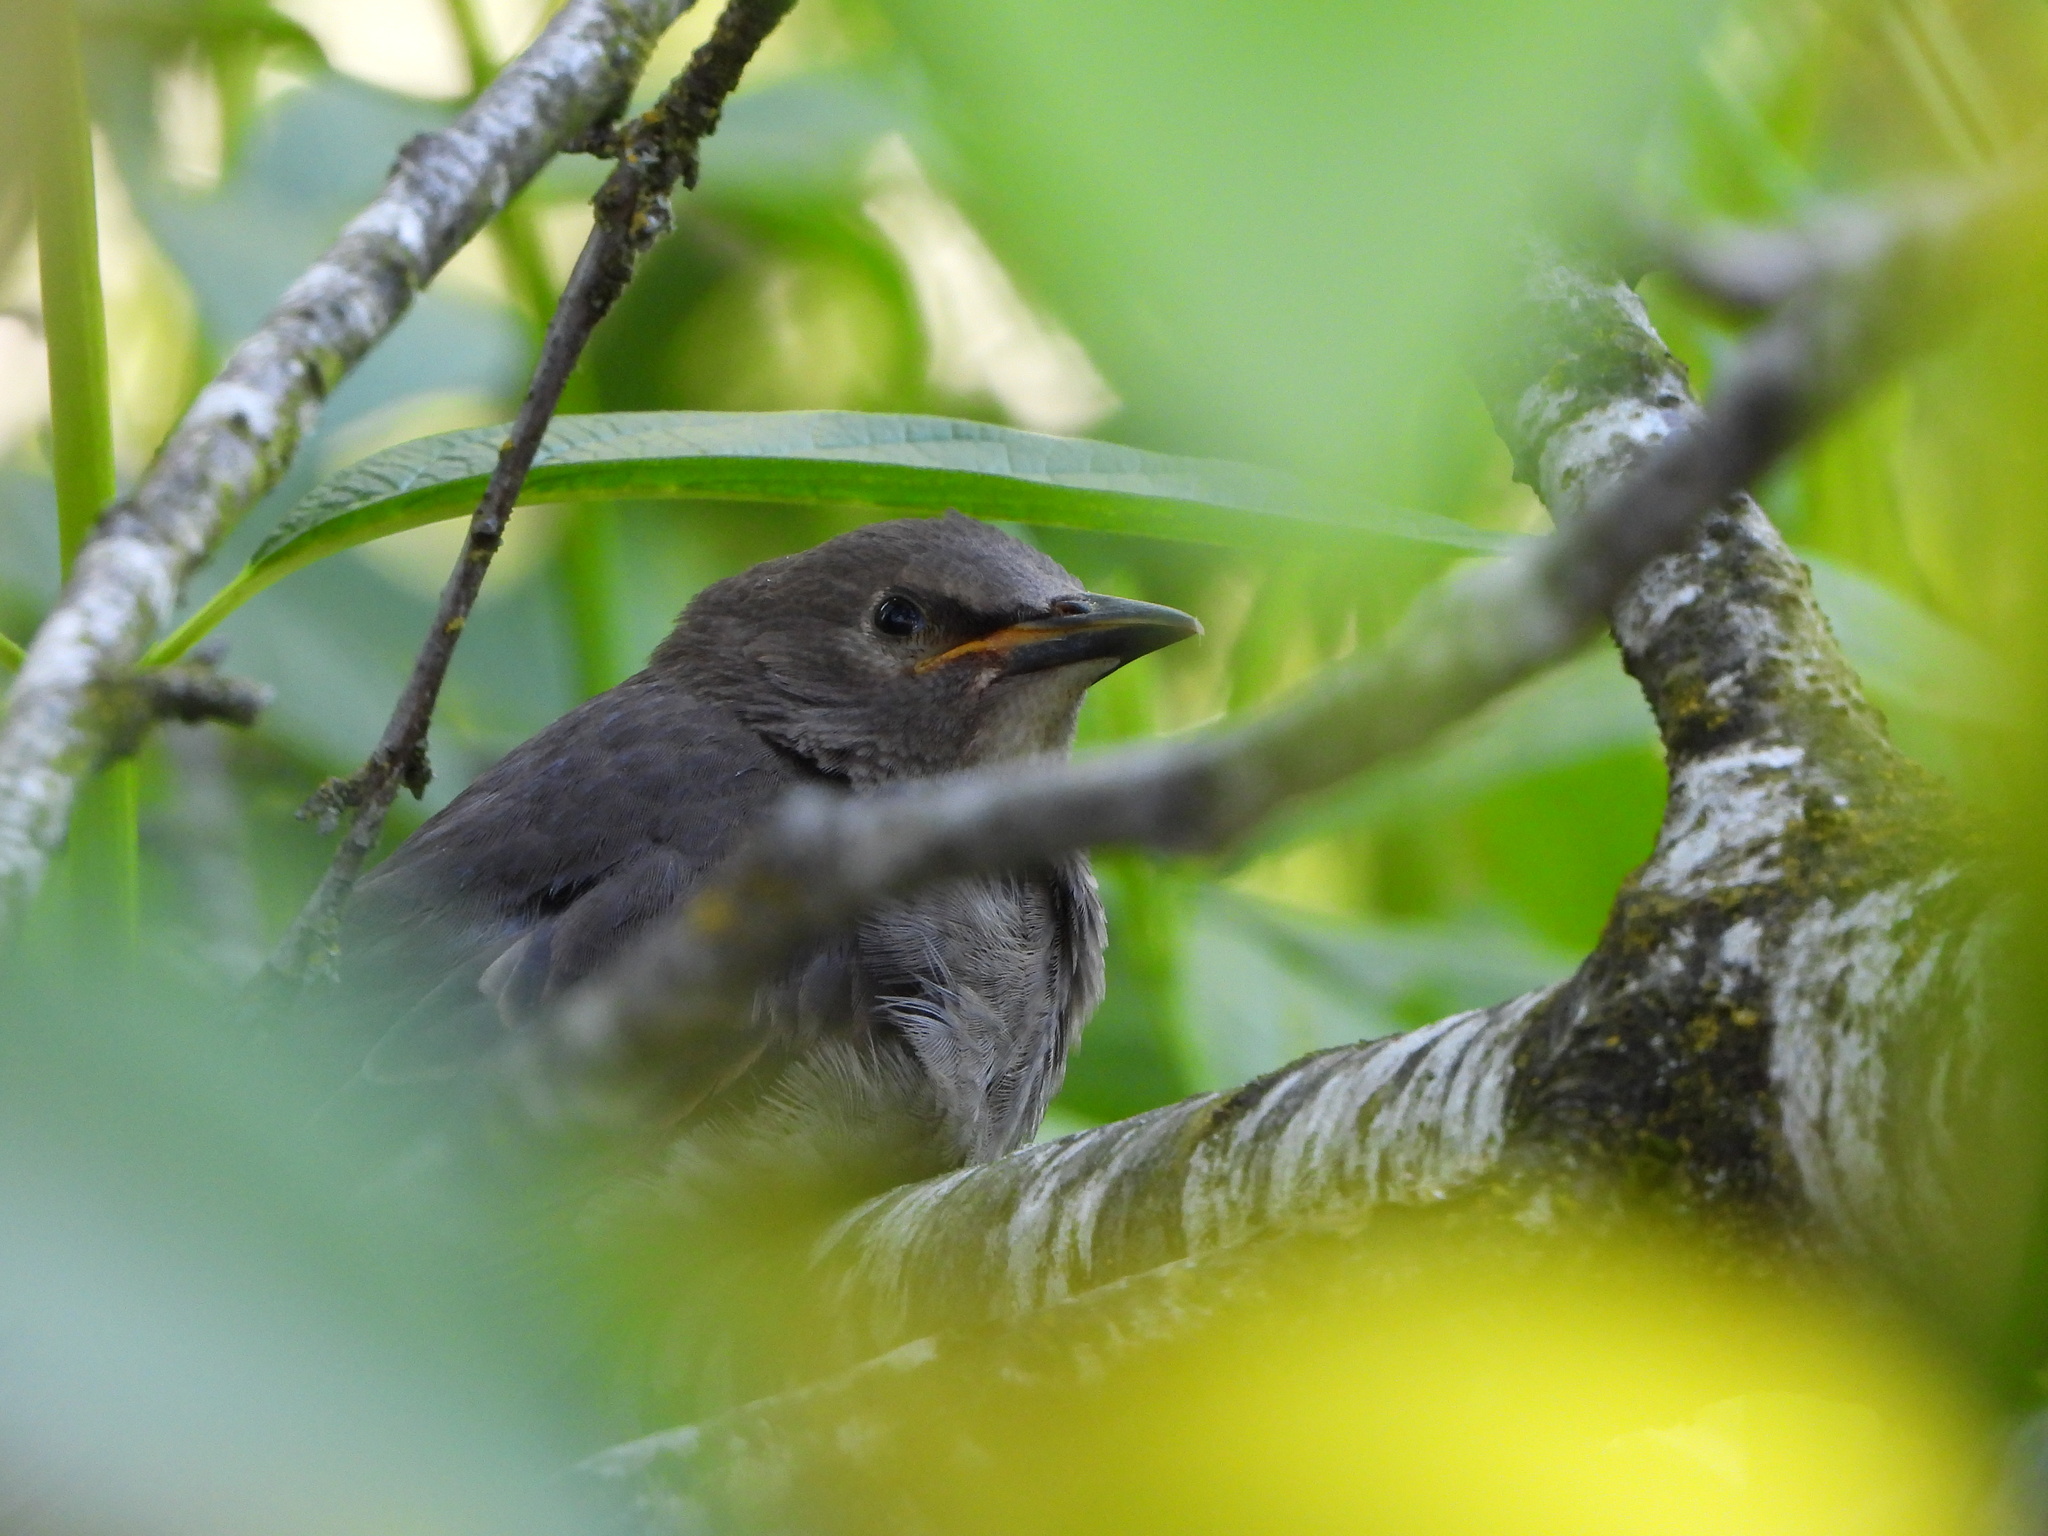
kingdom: Animalia
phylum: Chordata
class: Aves
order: Passeriformes
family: Sturnidae
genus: Sturnus
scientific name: Sturnus vulgaris
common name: Common starling
